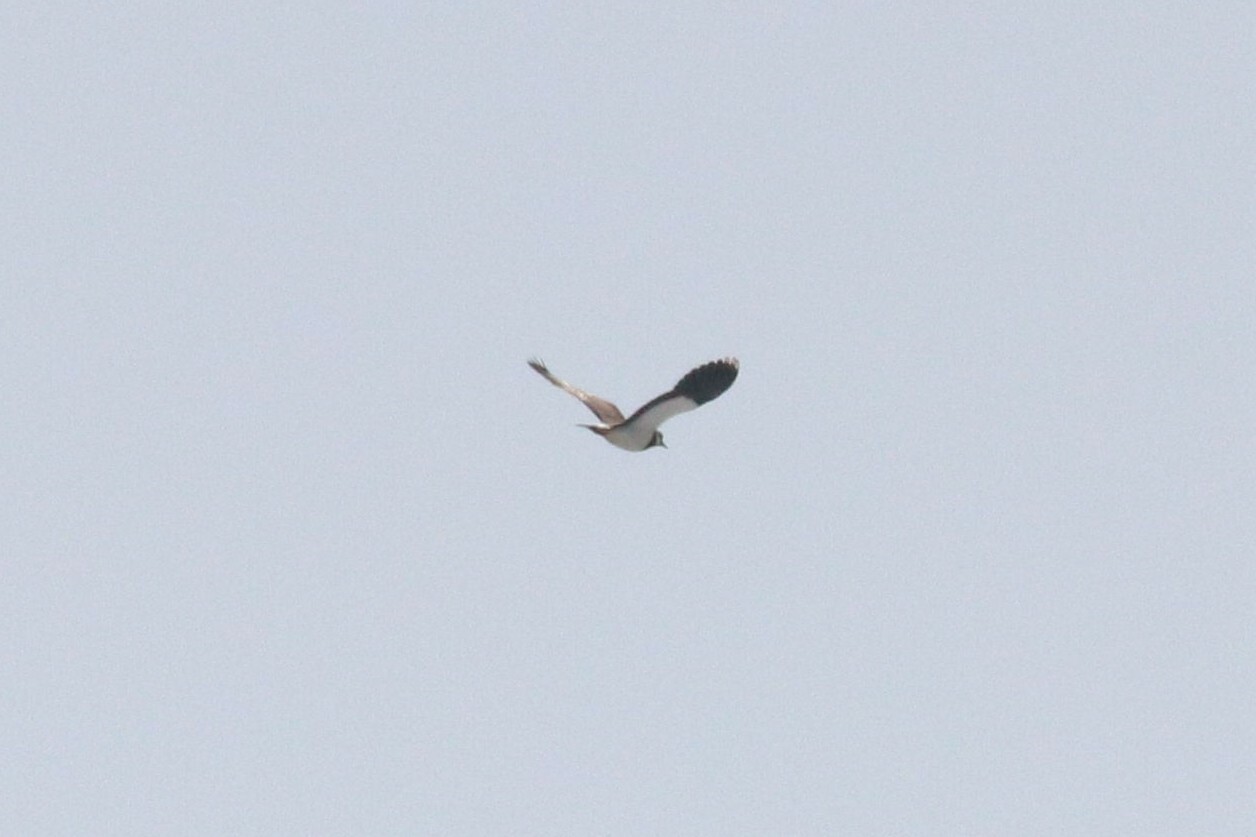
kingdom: Animalia
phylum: Chordata
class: Aves
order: Charadriiformes
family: Charadriidae
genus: Vanellus
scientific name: Vanellus vanellus
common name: Northern lapwing
